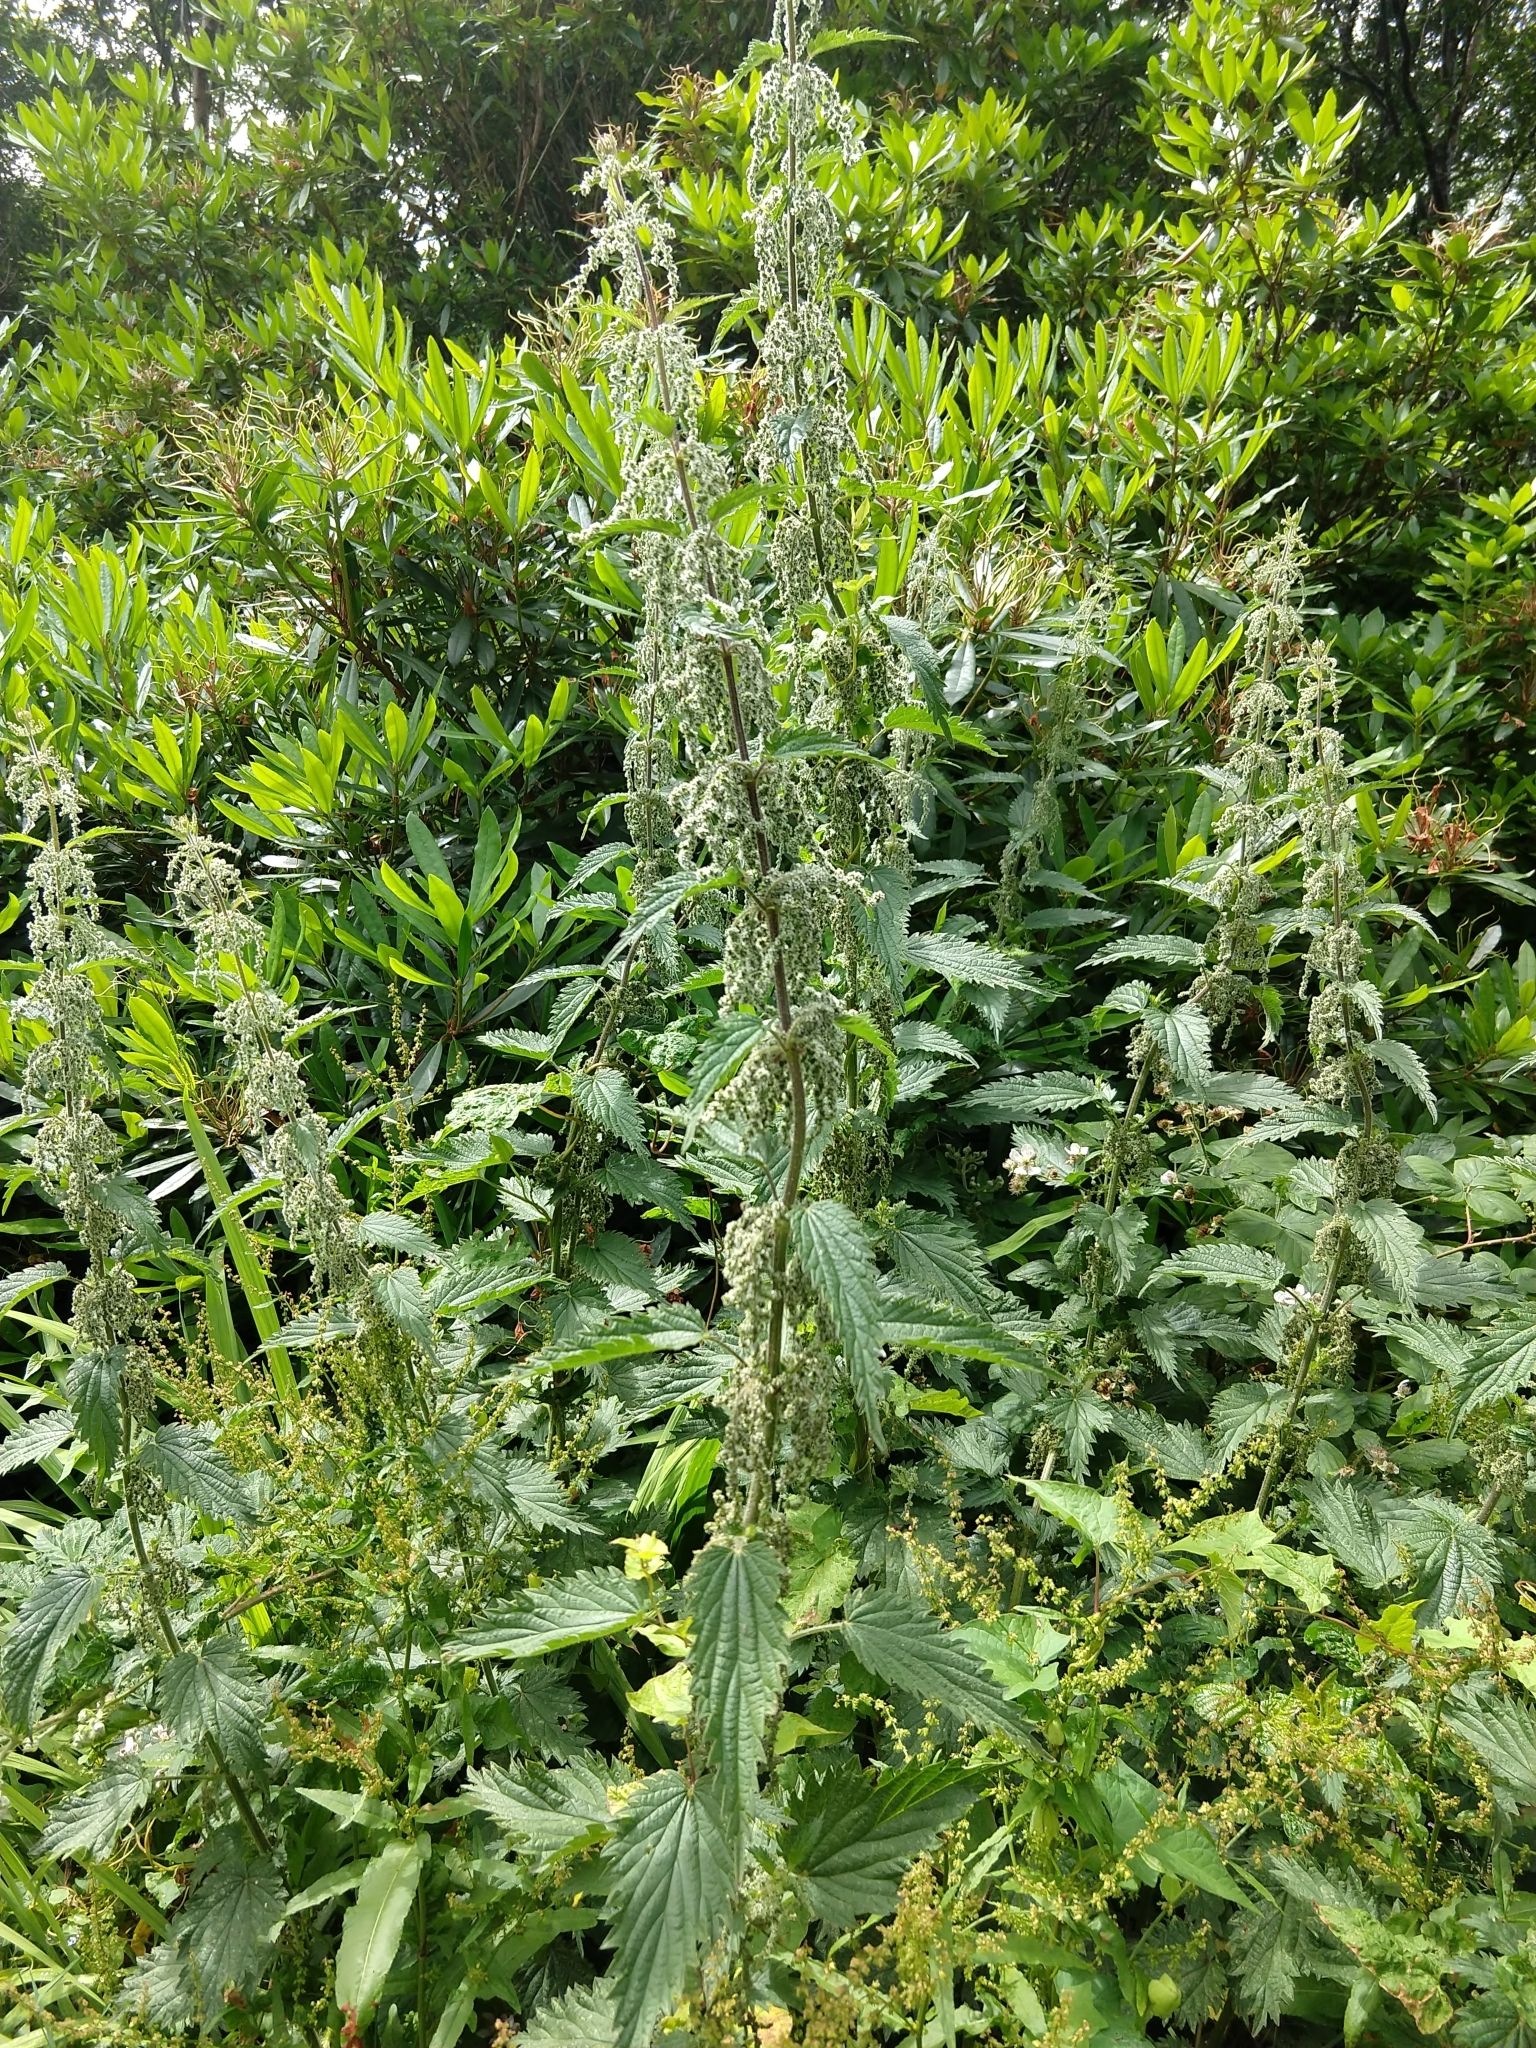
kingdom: Plantae
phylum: Tracheophyta
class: Magnoliopsida
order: Rosales
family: Urticaceae
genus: Urtica
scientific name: Urtica dioica
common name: Common nettle
